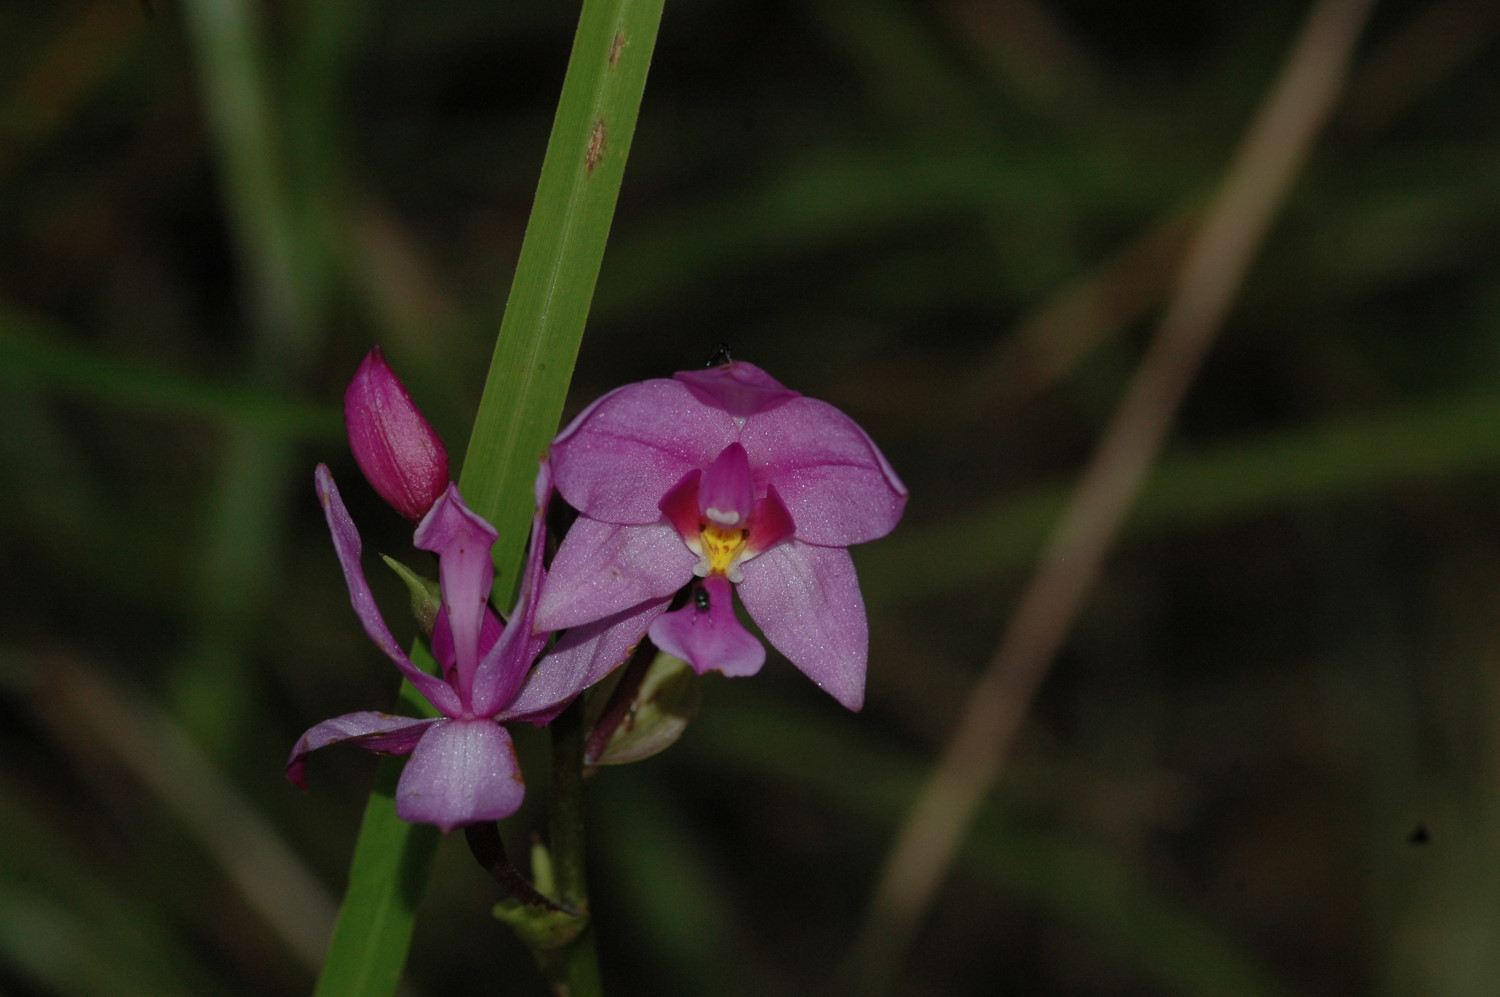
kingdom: Plantae
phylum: Tracheophyta
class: Liliopsida
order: Asparagales
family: Orchidaceae
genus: Spathoglottis
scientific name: Spathoglottis plicata
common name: Philippine ground orchid
